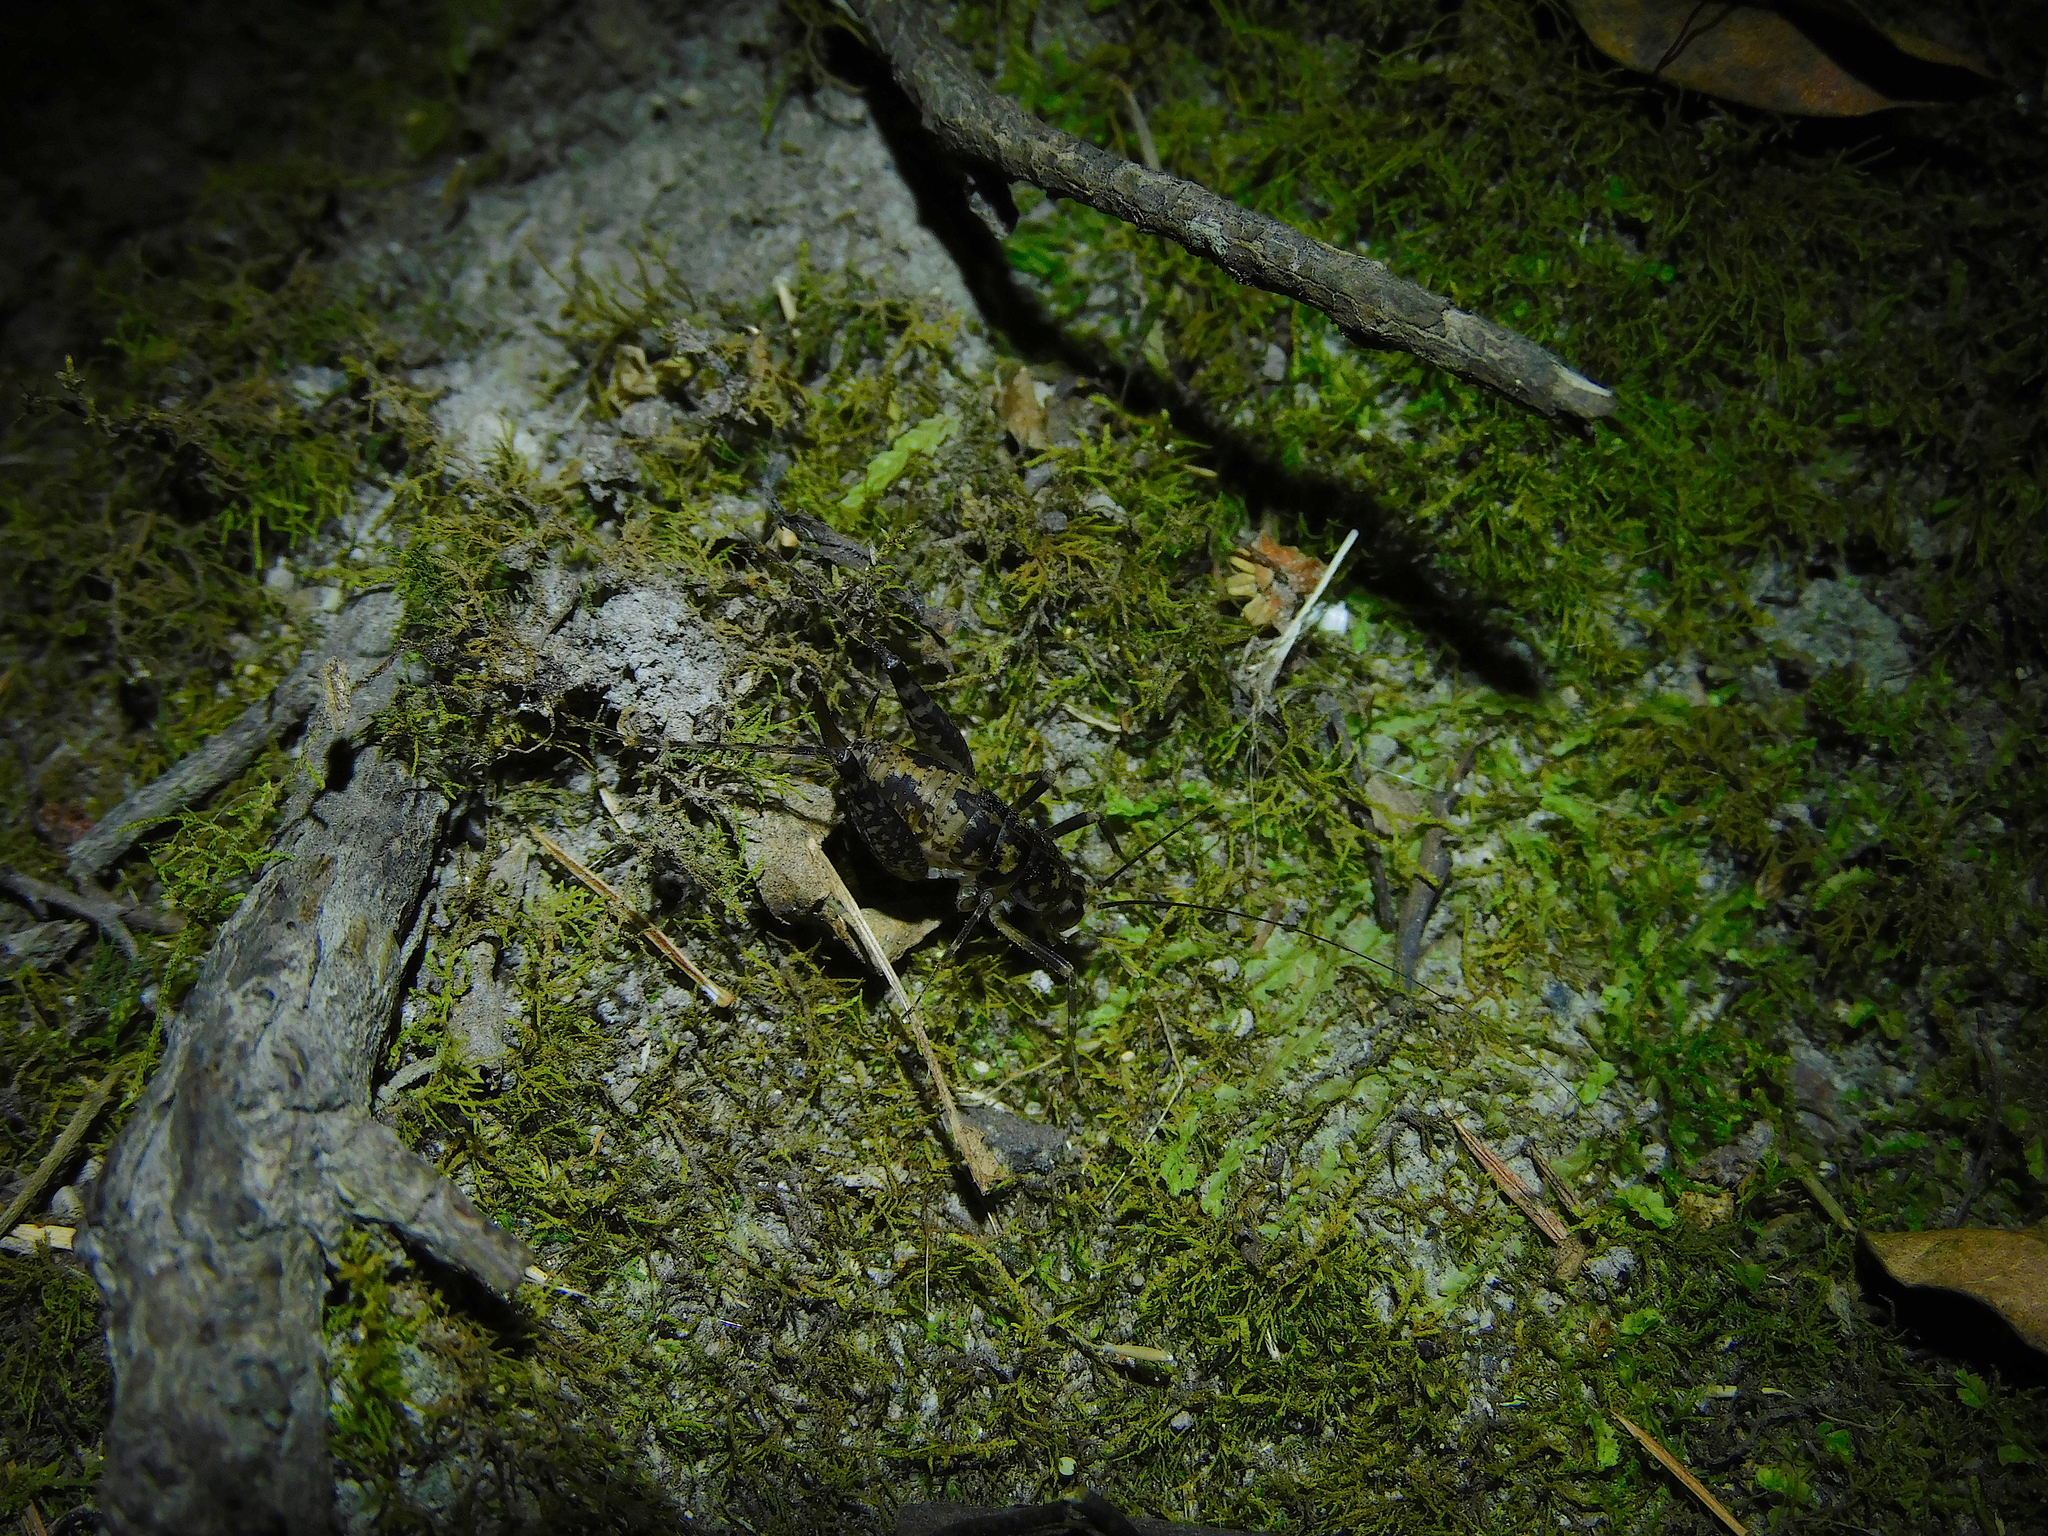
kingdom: Animalia
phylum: Arthropoda
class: Insecta
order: Orthoptera
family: Rhaphidophoridae
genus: Parvotettix
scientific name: Parvotettix domesticus
